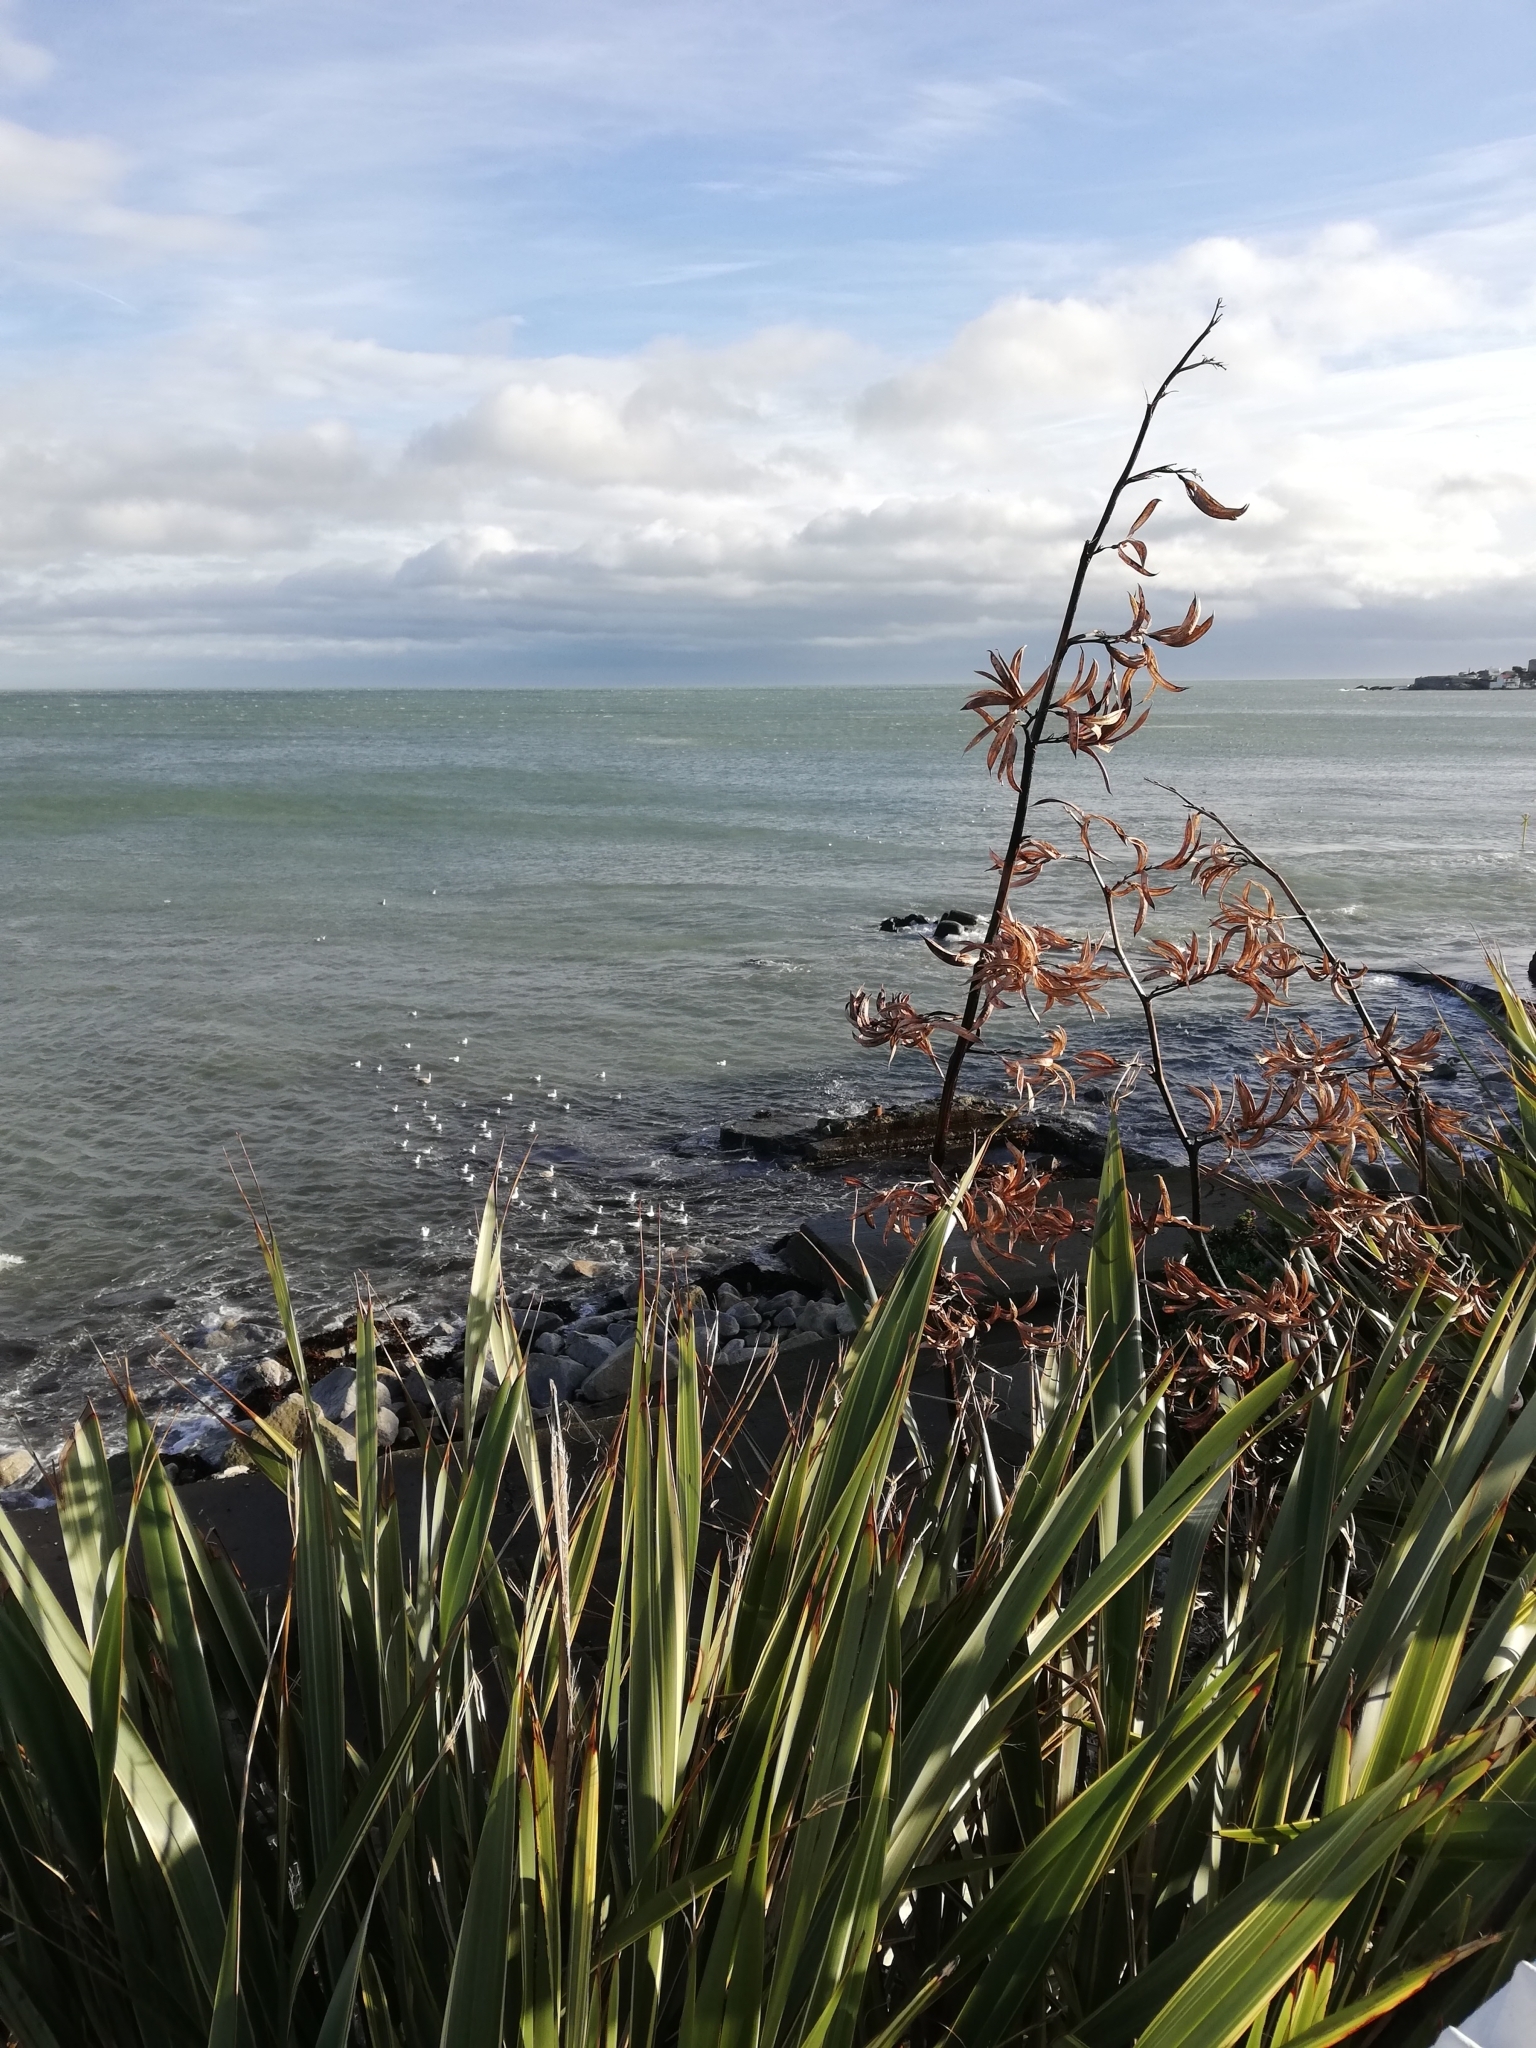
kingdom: Plantae
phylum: Tracheophyta
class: Liliopsida
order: Asparagales
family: Asphodelaceae
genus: Phormium
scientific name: Phormium tenax
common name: New zealand flax
